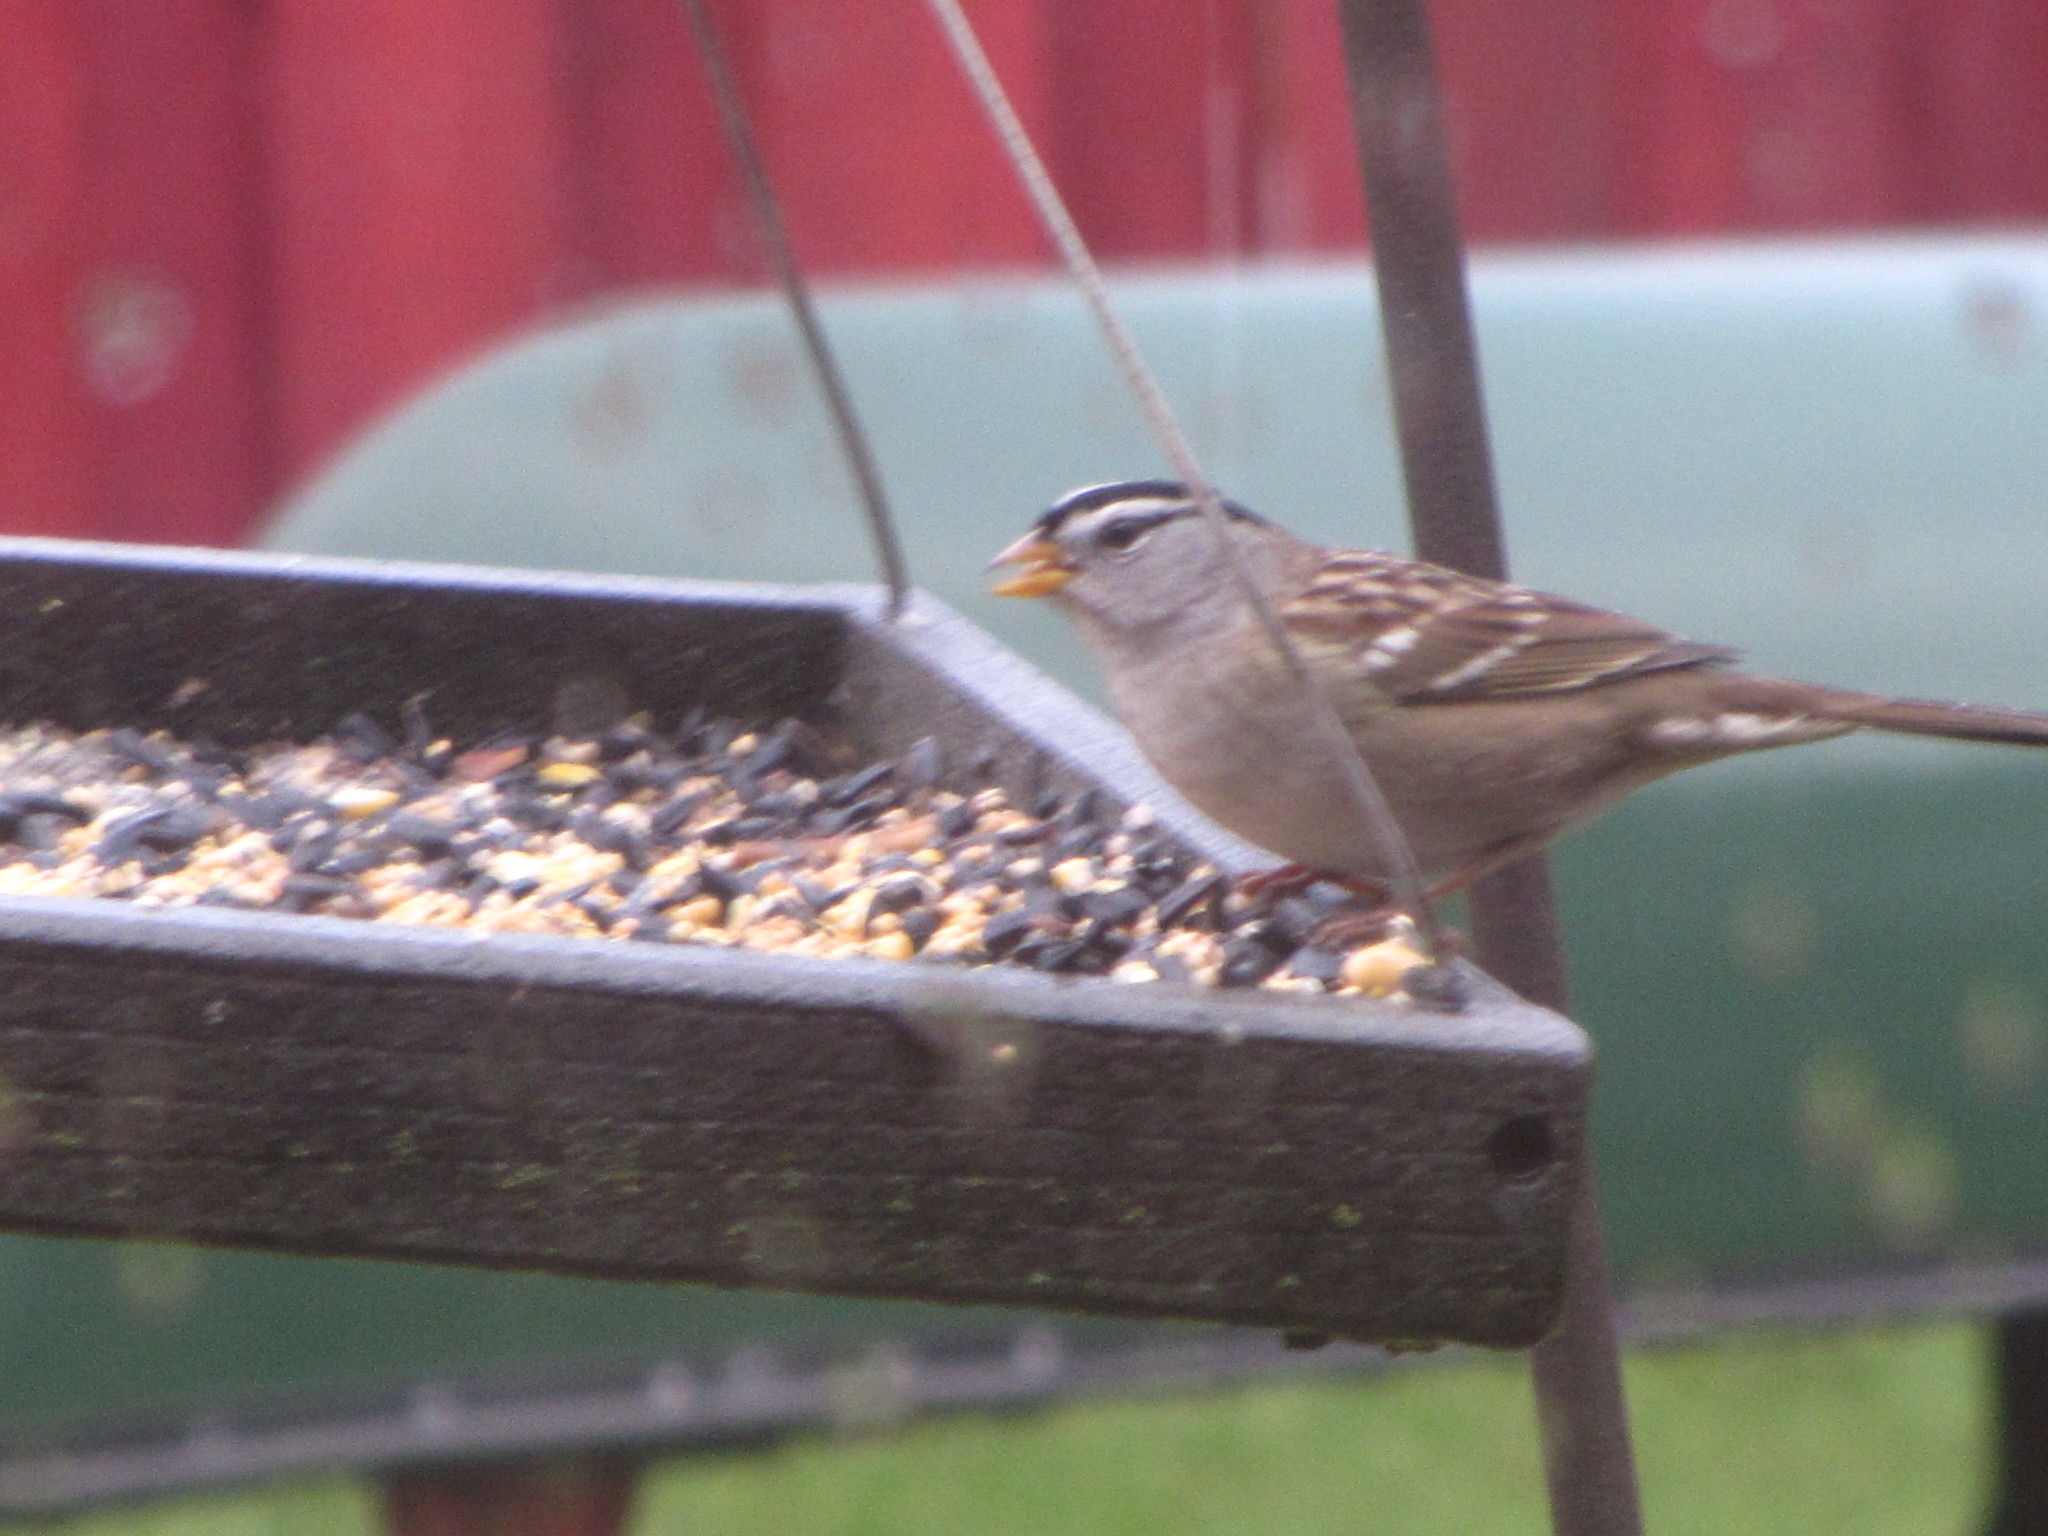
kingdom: Animalia
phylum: Chordata
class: Aves
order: Passeriformes
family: Passerellidae
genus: Zonotrichia
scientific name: Zonotrichia leucophrys
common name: White-crowned sparrow
